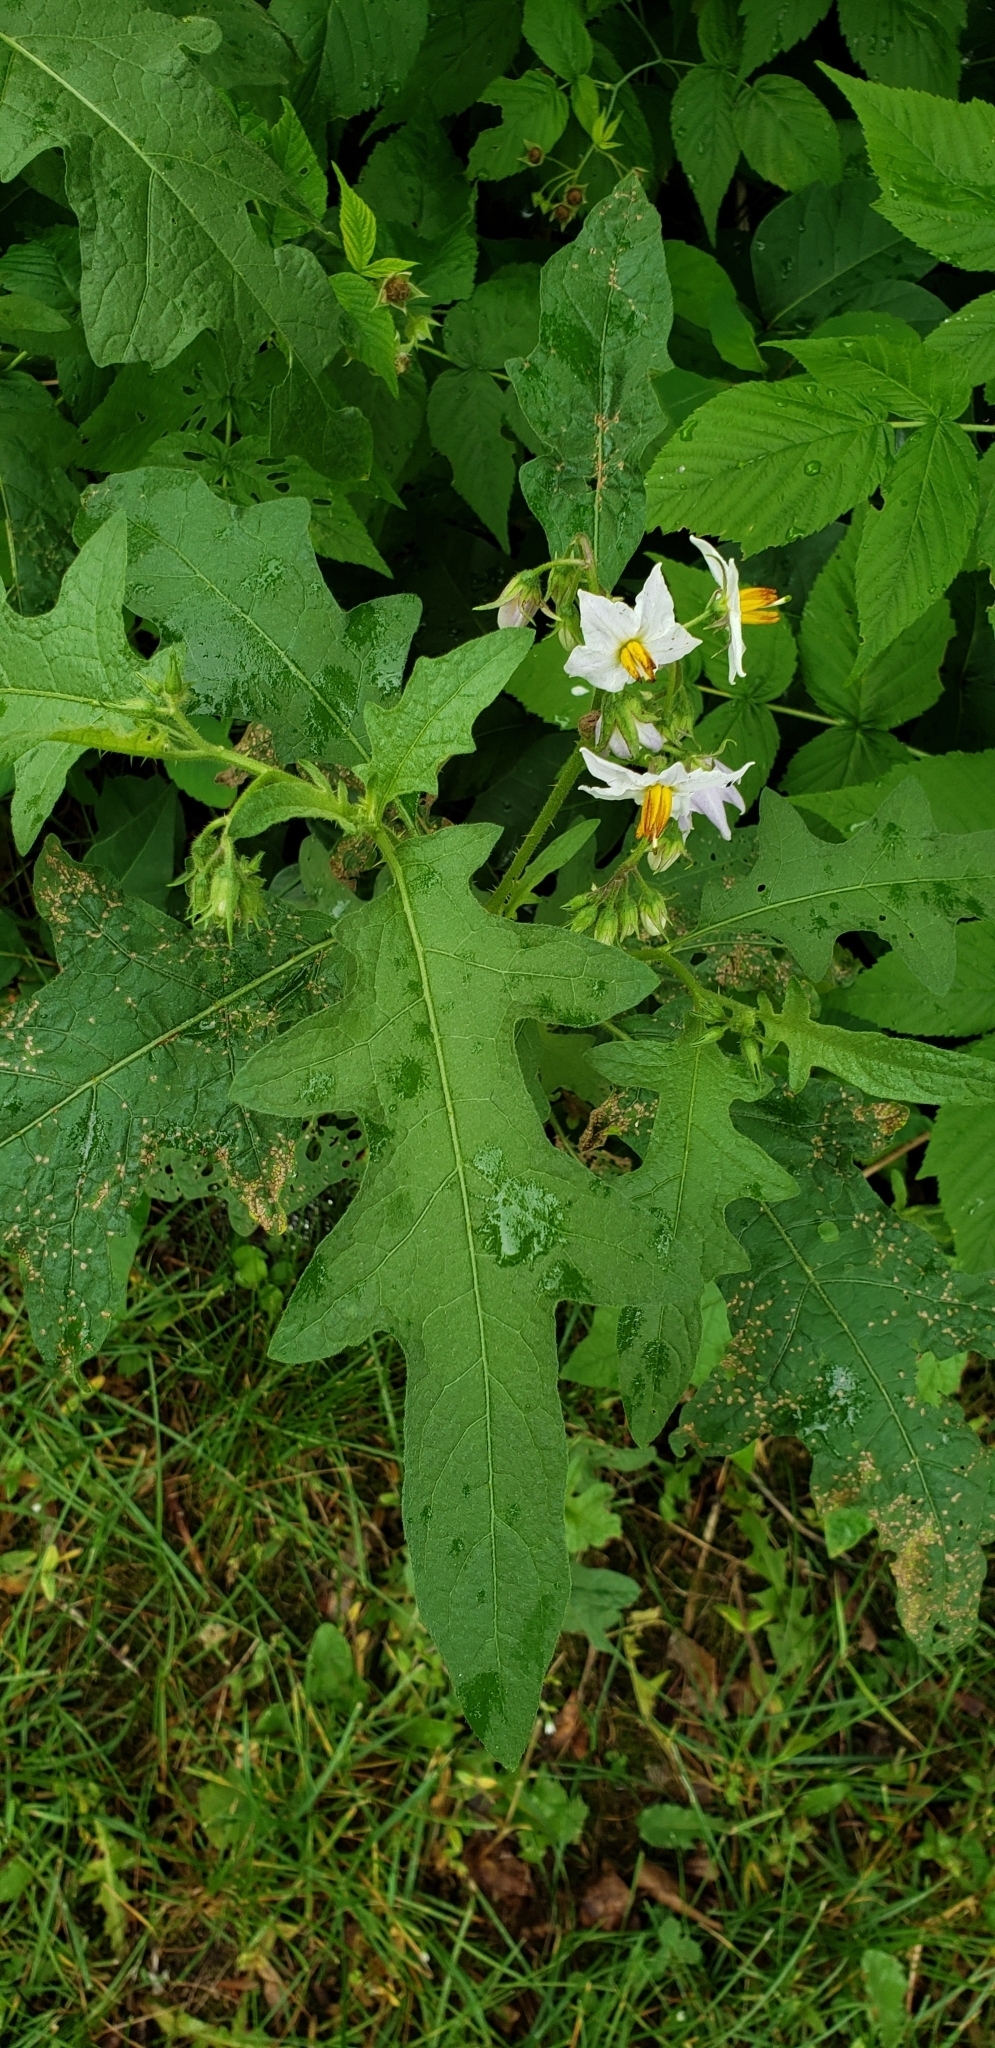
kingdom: Plantae
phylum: Tracheophyta
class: Magnoliopsida
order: Solanales
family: Solanaceae
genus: Solanum
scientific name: Solanum carolinense
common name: Horse-nettle
